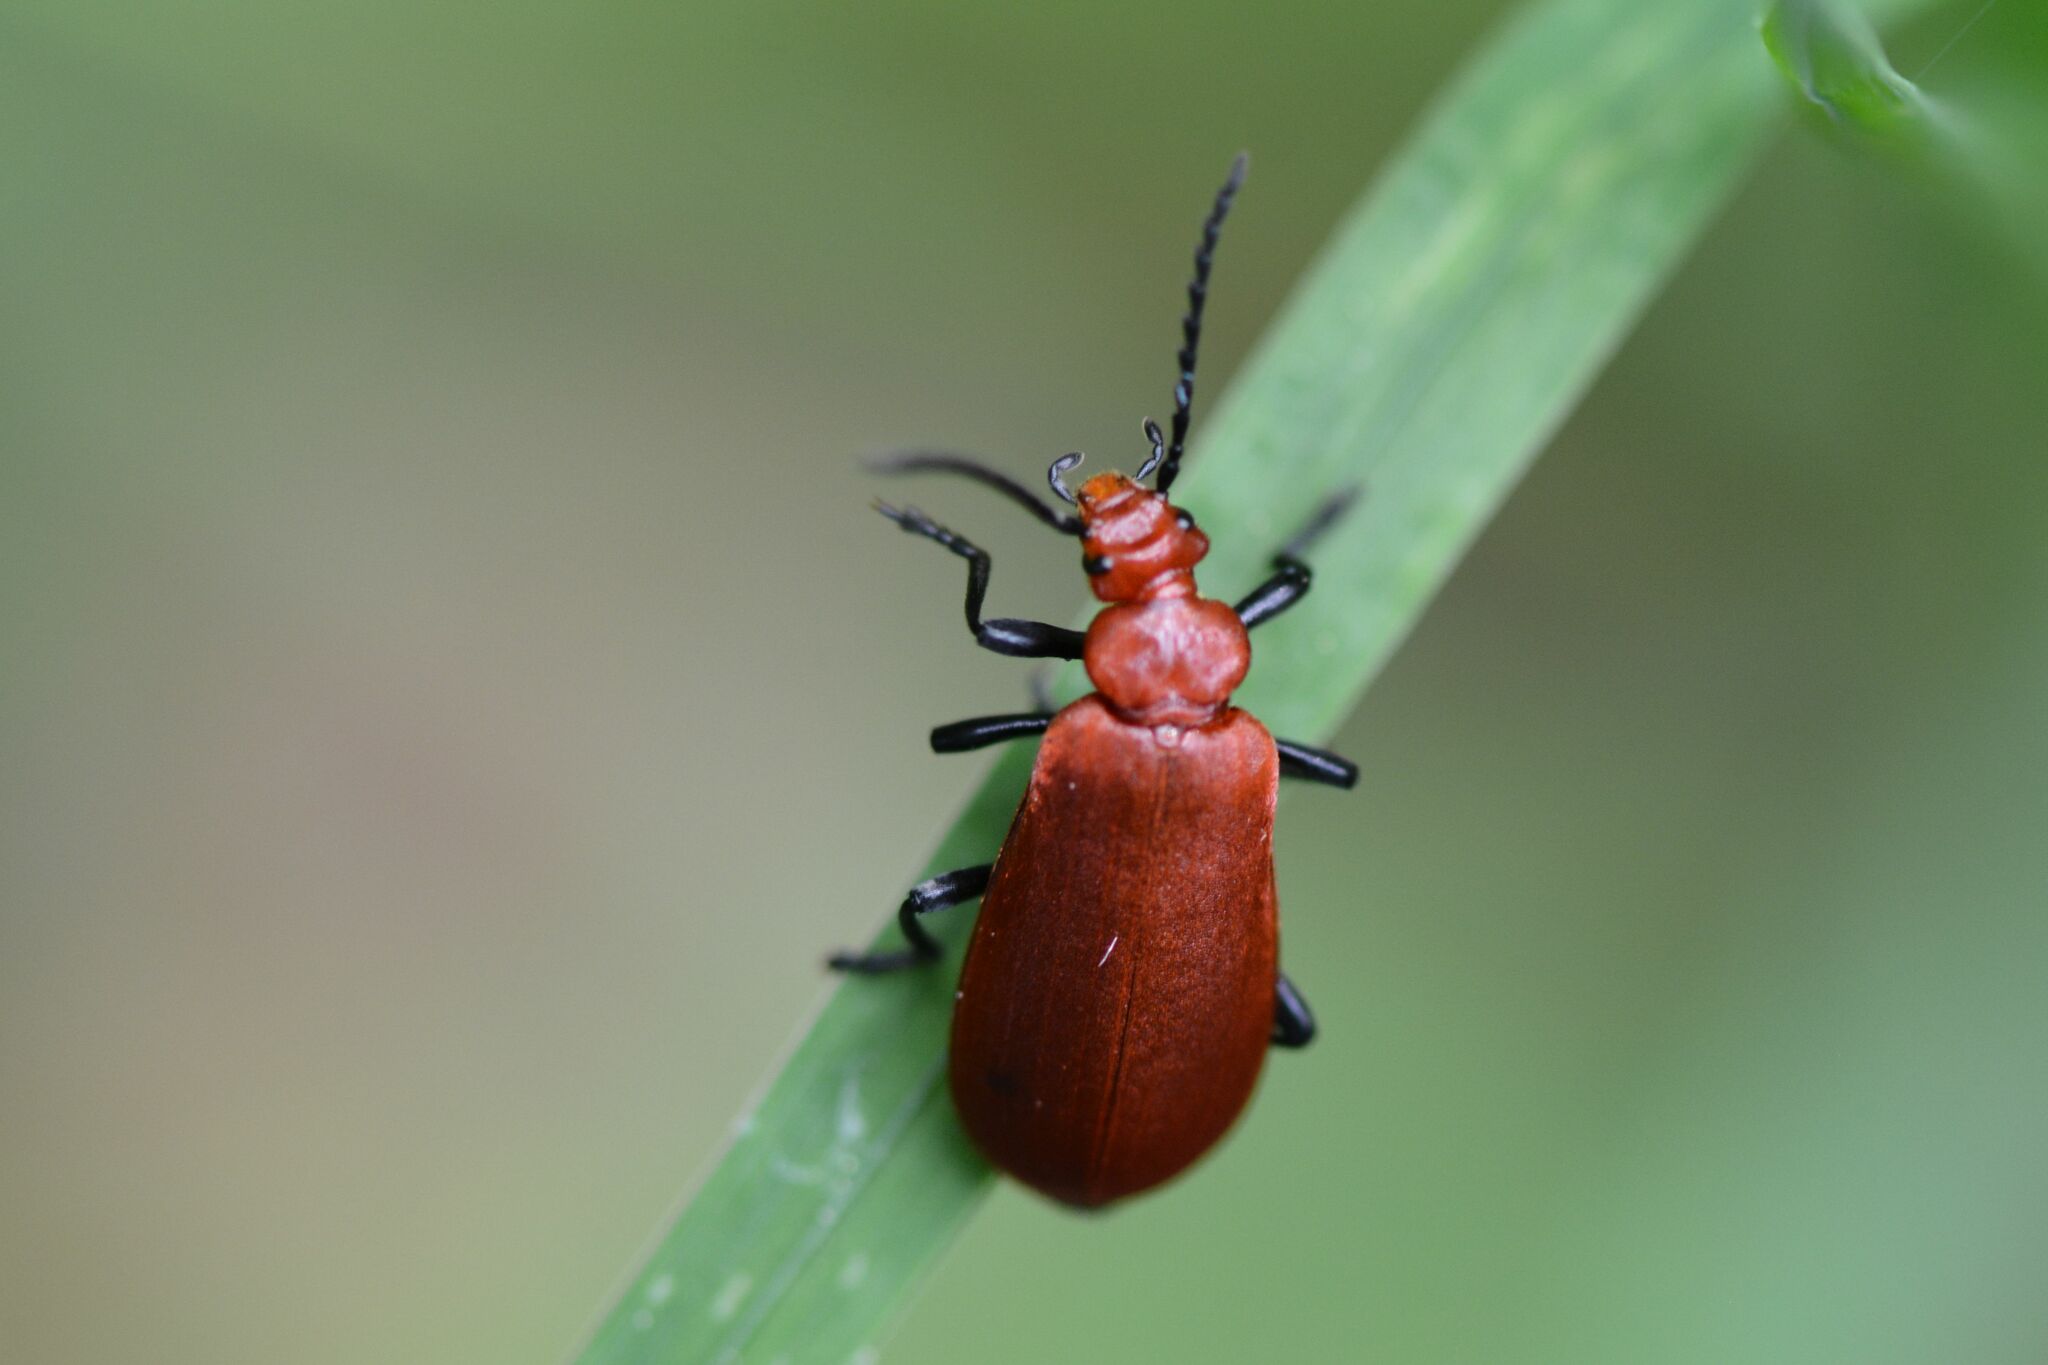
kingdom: Animalia
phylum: Arthropoda
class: Insecta
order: Coleoptera
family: Pyrochroidae
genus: Pyrochroa
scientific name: Pyrochroa serraticornis
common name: Red-headed cardinal beetle
